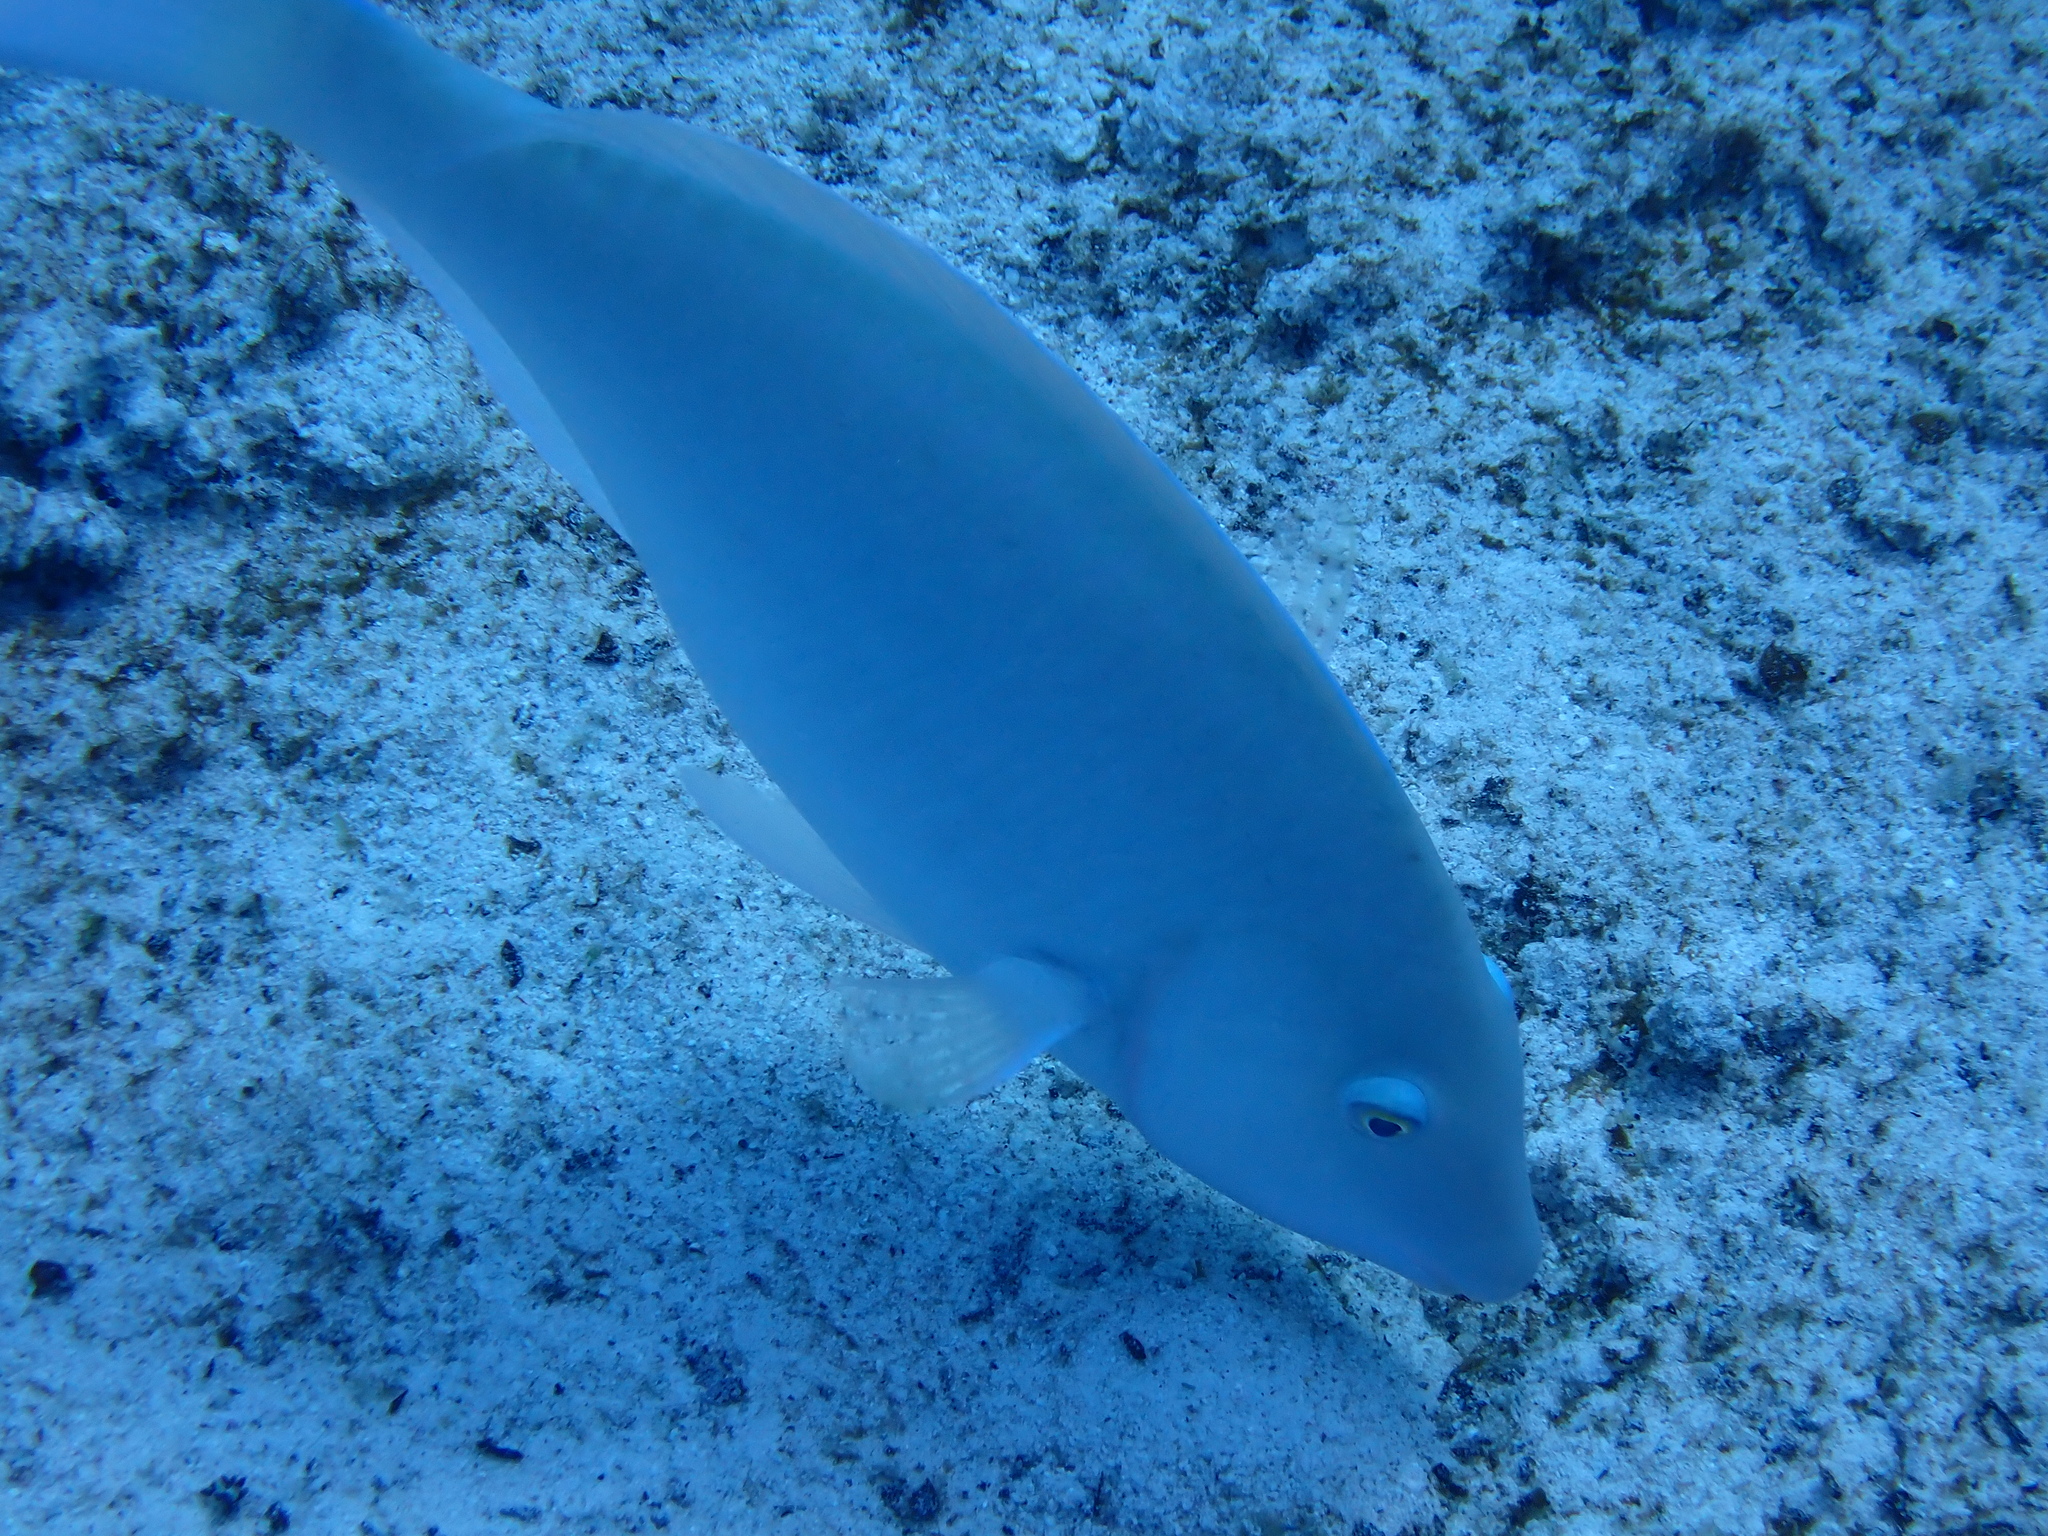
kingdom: Animalia
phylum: Chordata
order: Perciformes
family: Scaridae
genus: Hipposcarus
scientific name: Hipposcarus harid
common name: Candelamoa parrotfish
